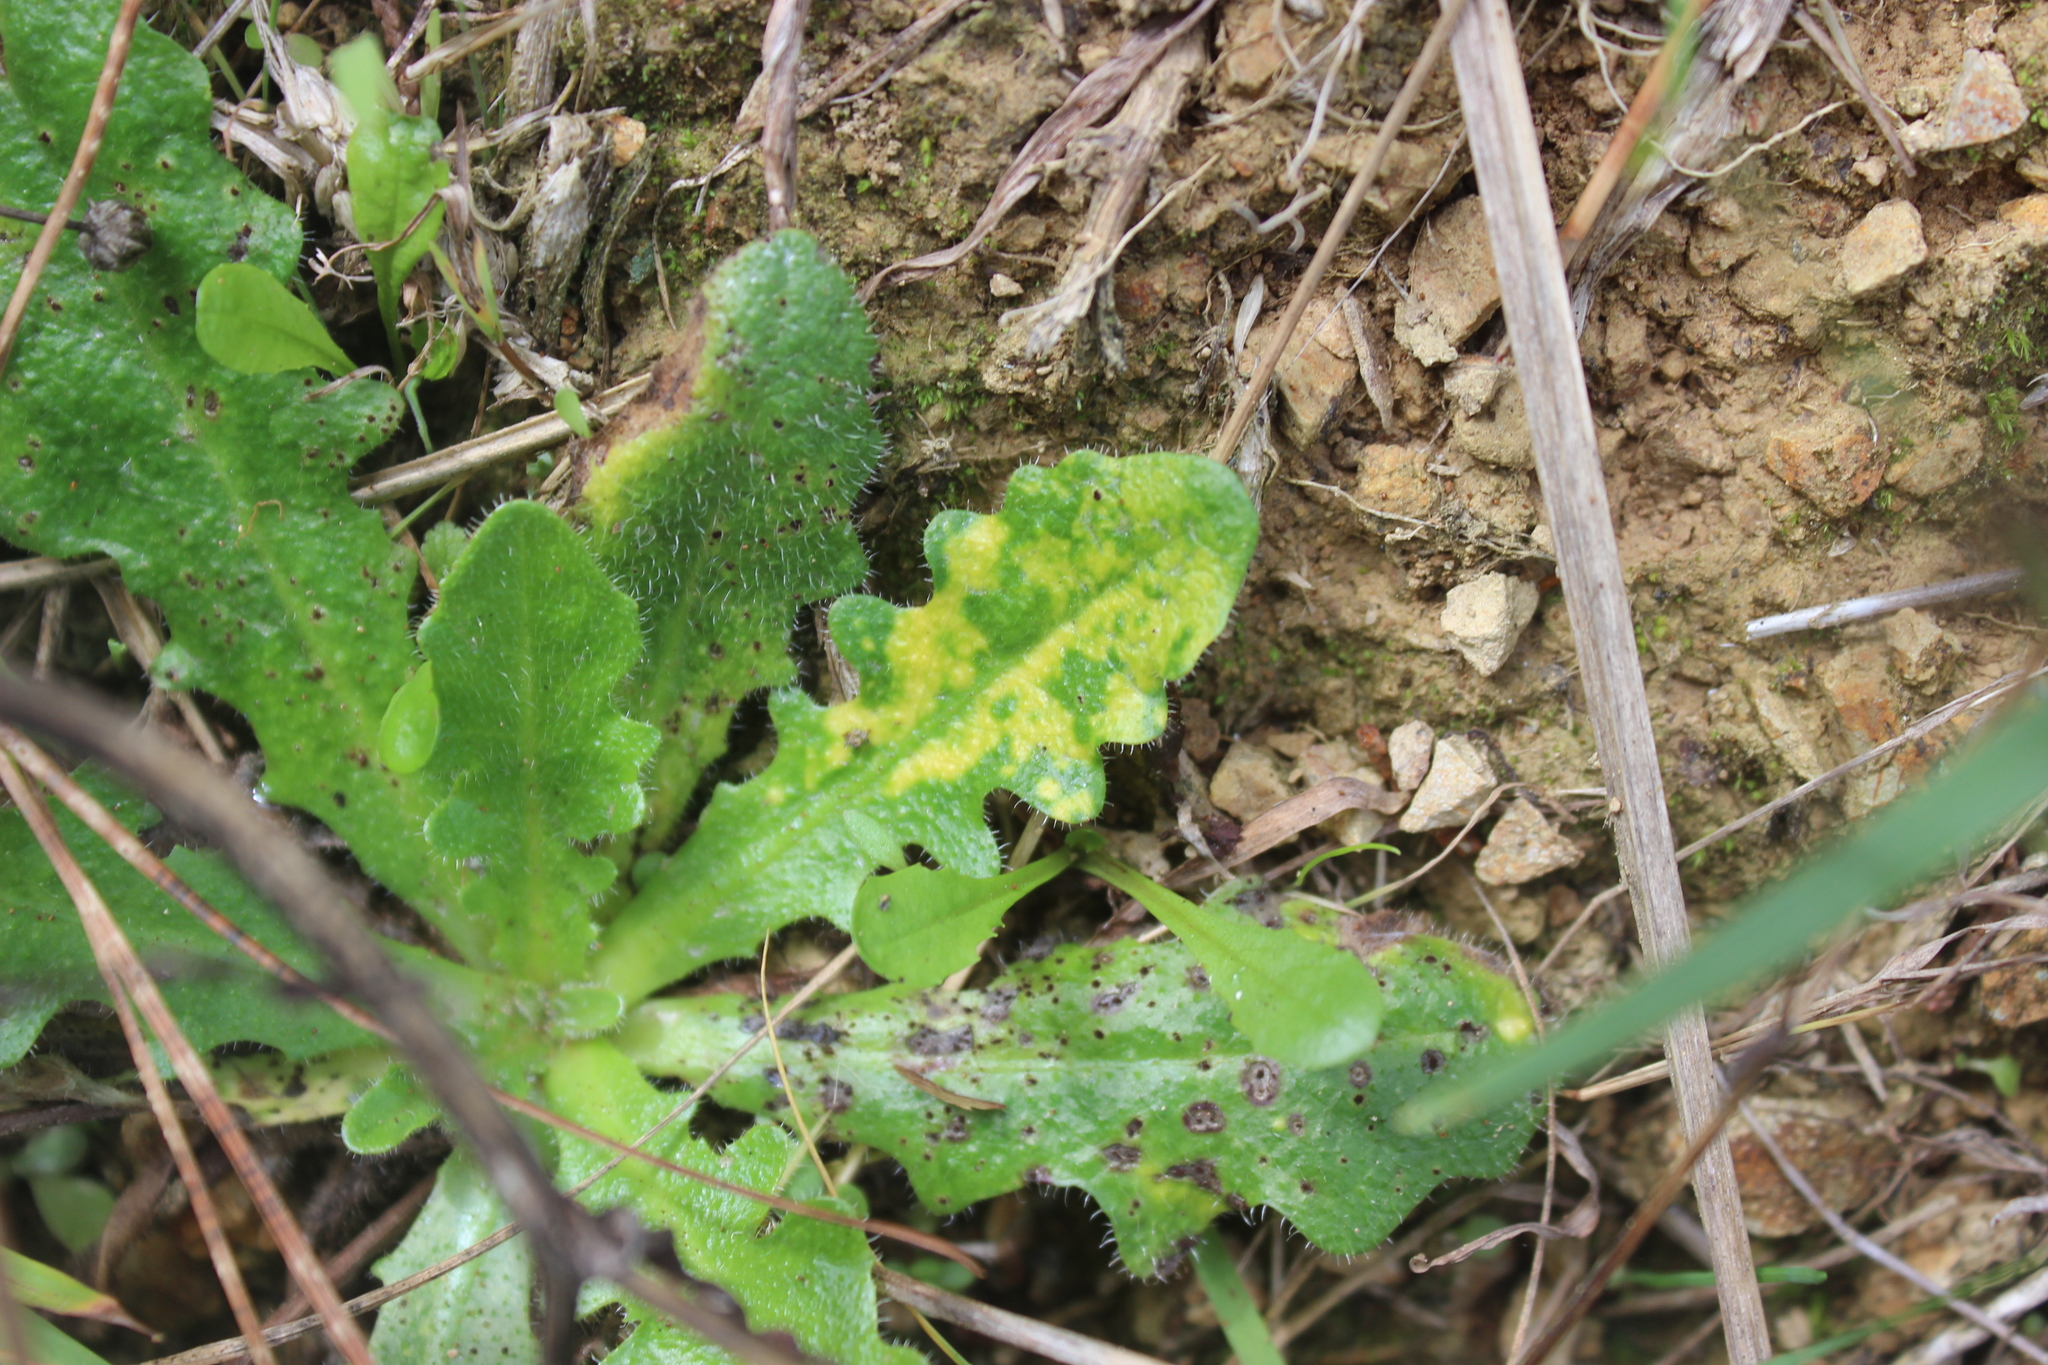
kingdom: Viruses
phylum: Kitrinoviricota
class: Alsuviricetes
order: Martellivirales
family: Virgaviridae
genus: Furovirus
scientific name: Furovirus
